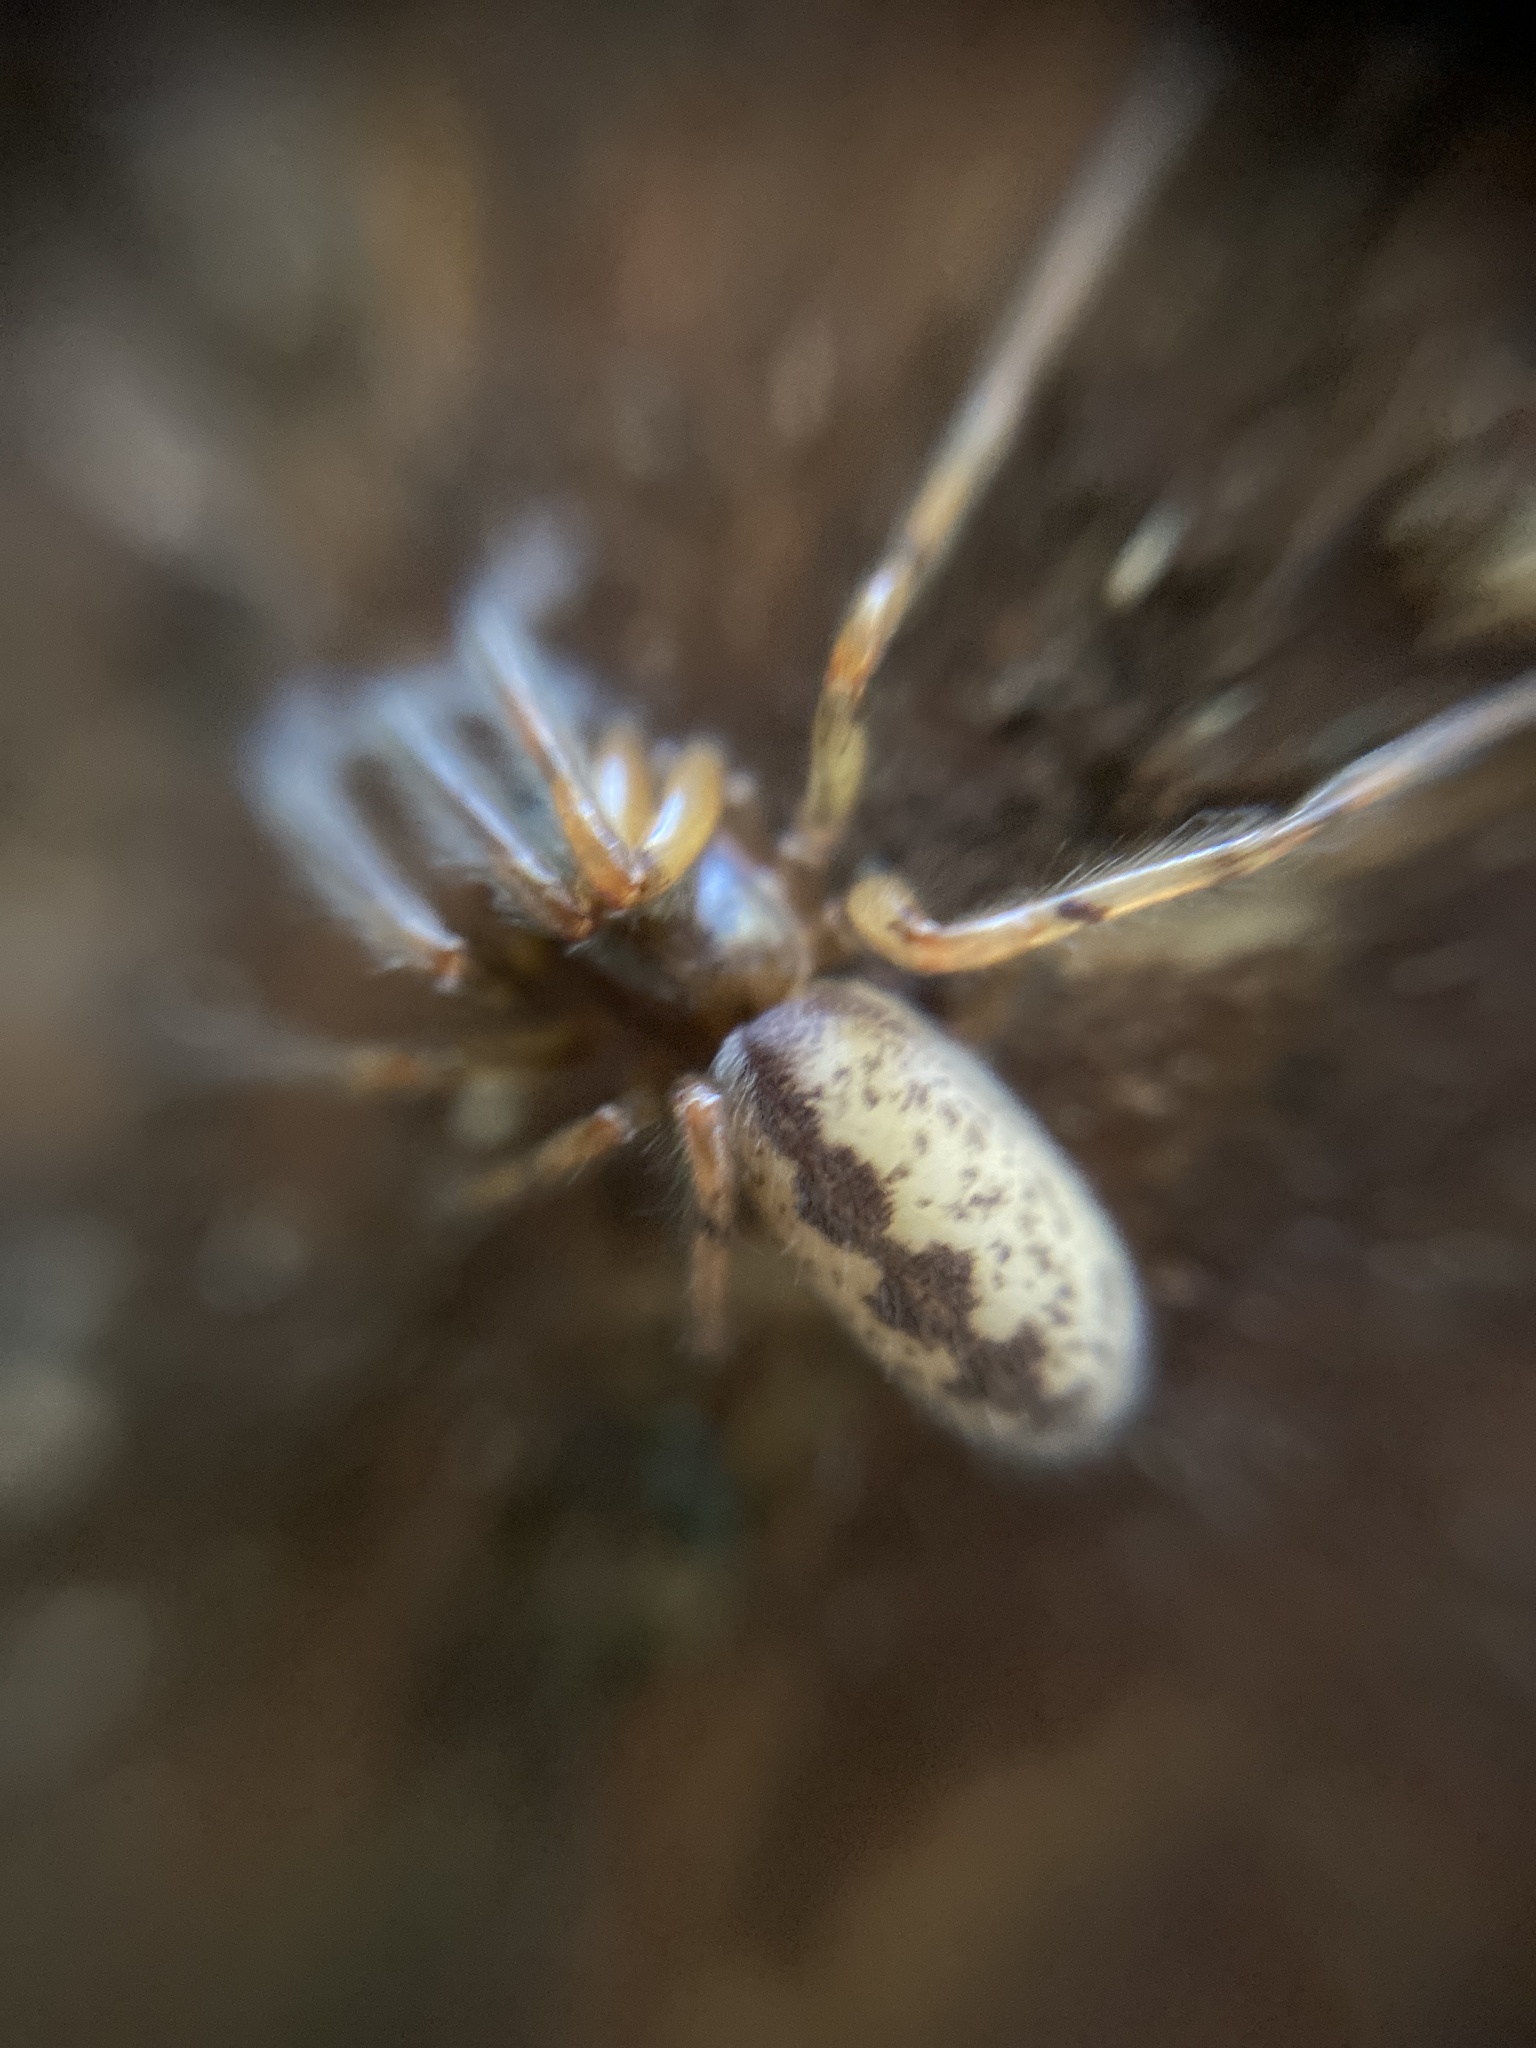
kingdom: Animalia
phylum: Arthropoda
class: Arachnida
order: Araneae
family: Segestriidae
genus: Segestria
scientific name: Segestria senoculata
